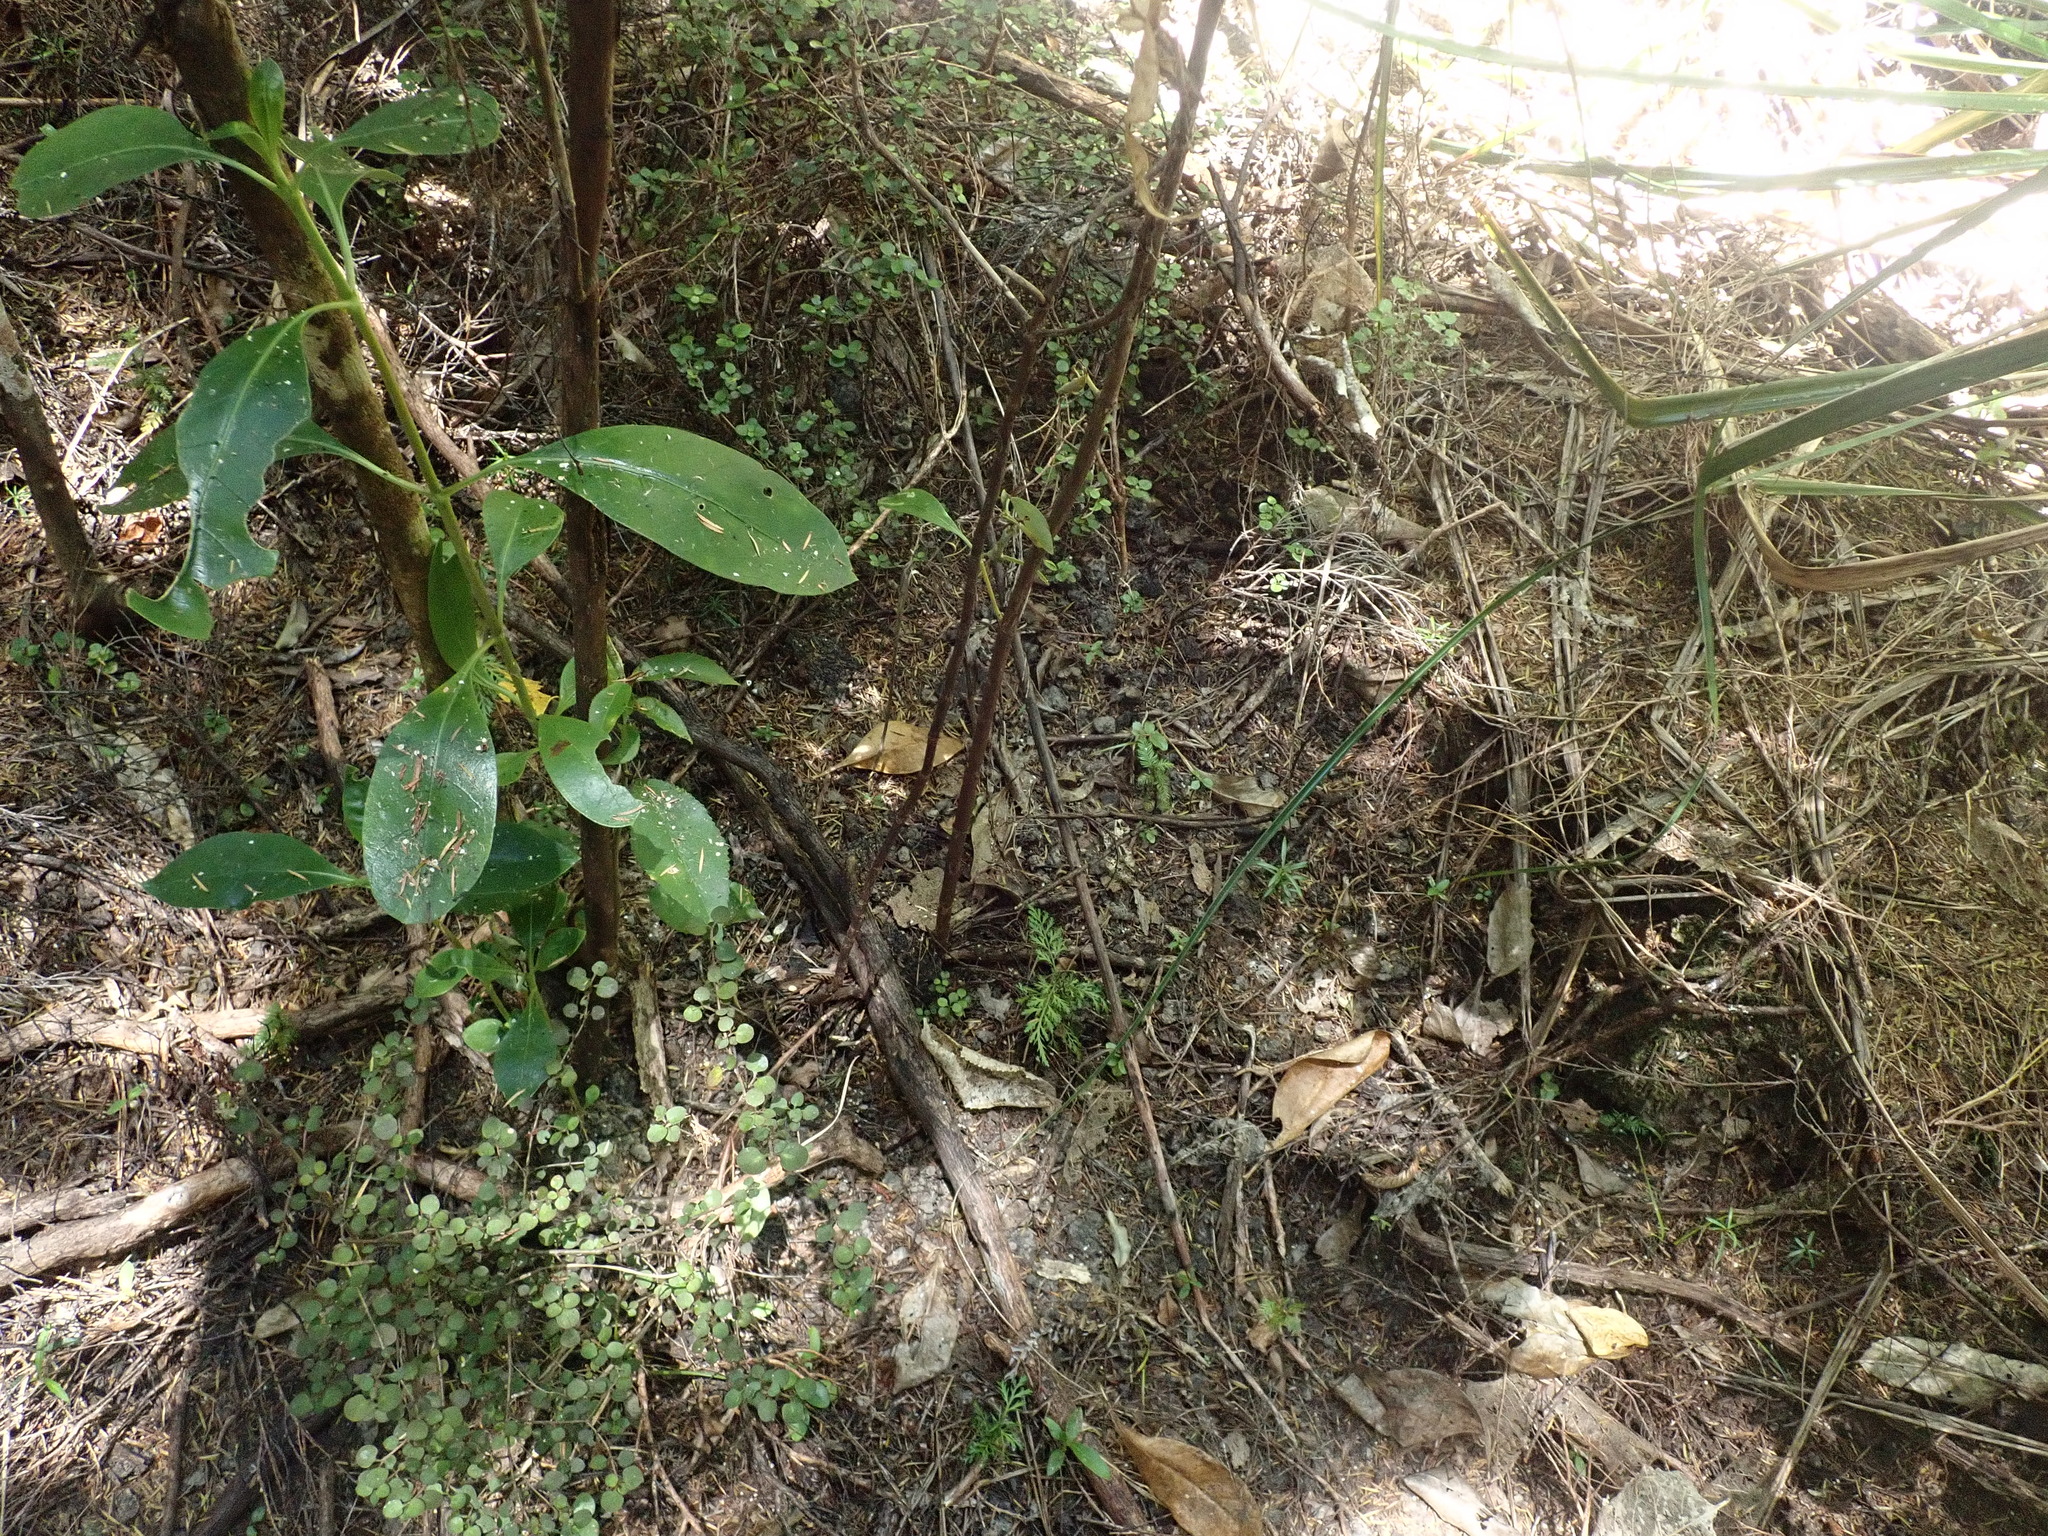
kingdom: Plantae
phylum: Tracheophyta
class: Pinopsida
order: Pinales
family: Phyllocladaceae
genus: Phyllocladus
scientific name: Phyllocladus trichomanoides
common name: Celery pine
